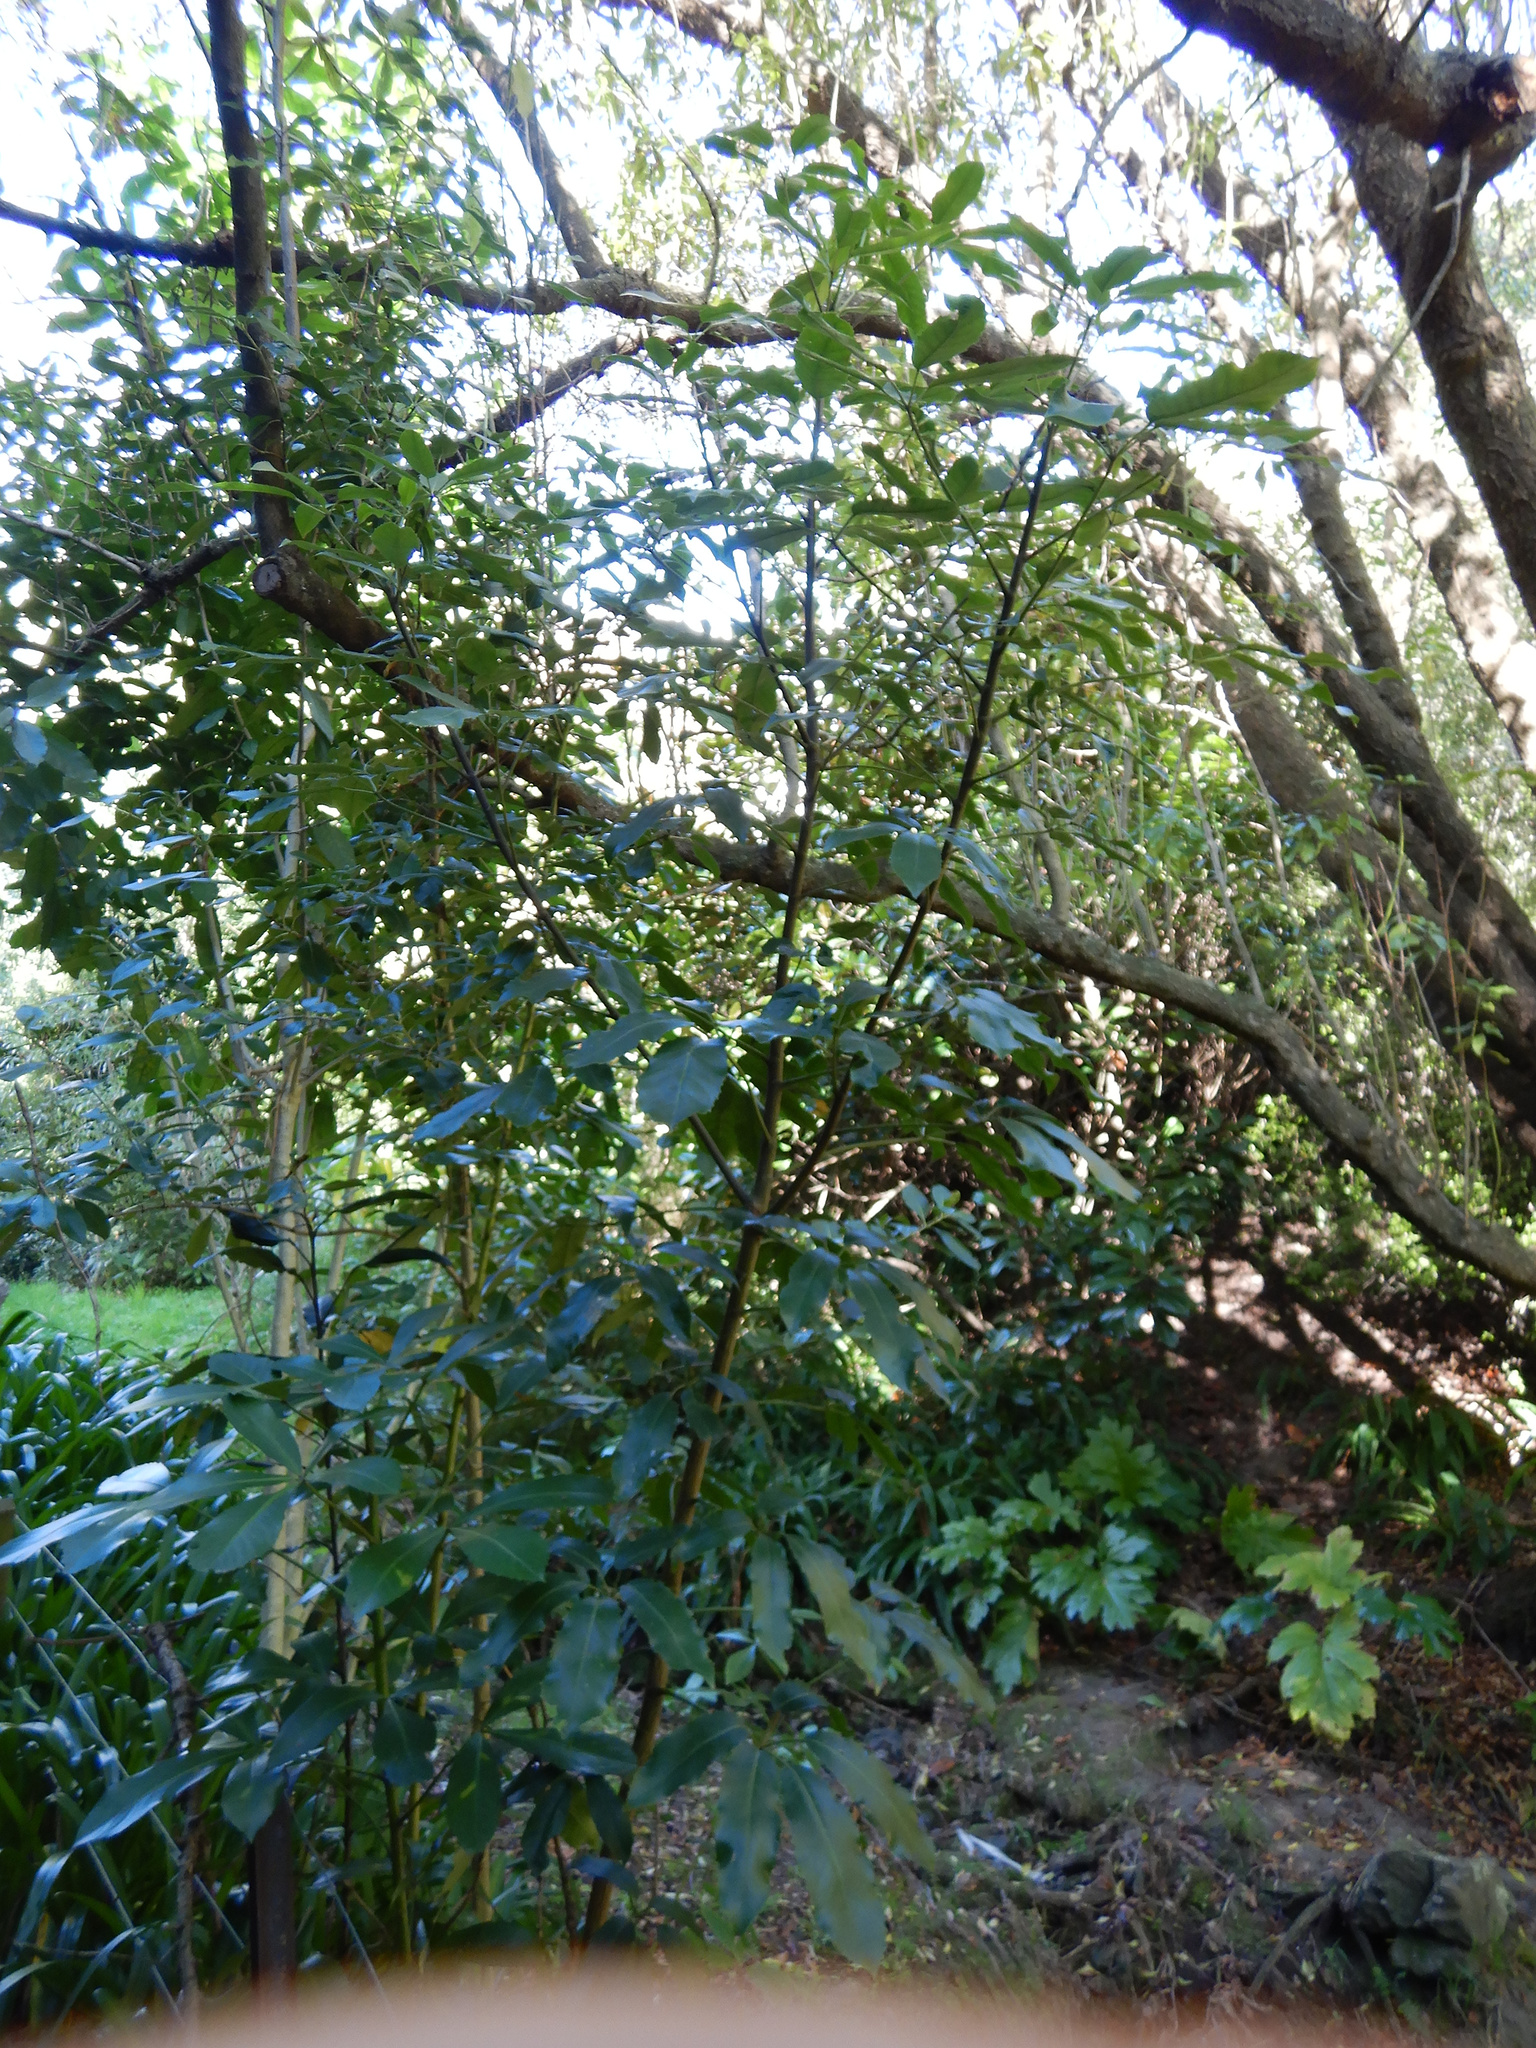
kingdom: Plantae
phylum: Tracheophyta
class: Magnoliopsida
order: Apiales
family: Araliaceae
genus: Neopanax
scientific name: Neopanax arboreus
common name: Five-fingers
